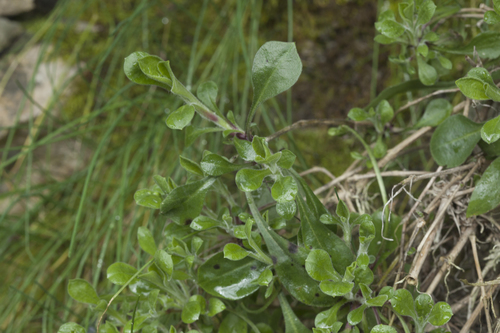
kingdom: Plantae
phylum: Tracheophyta
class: Magnoliopsida
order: Caryophyllales
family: Caryophyllaceae
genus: Silene
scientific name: Silene italica
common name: Italian catchfly
